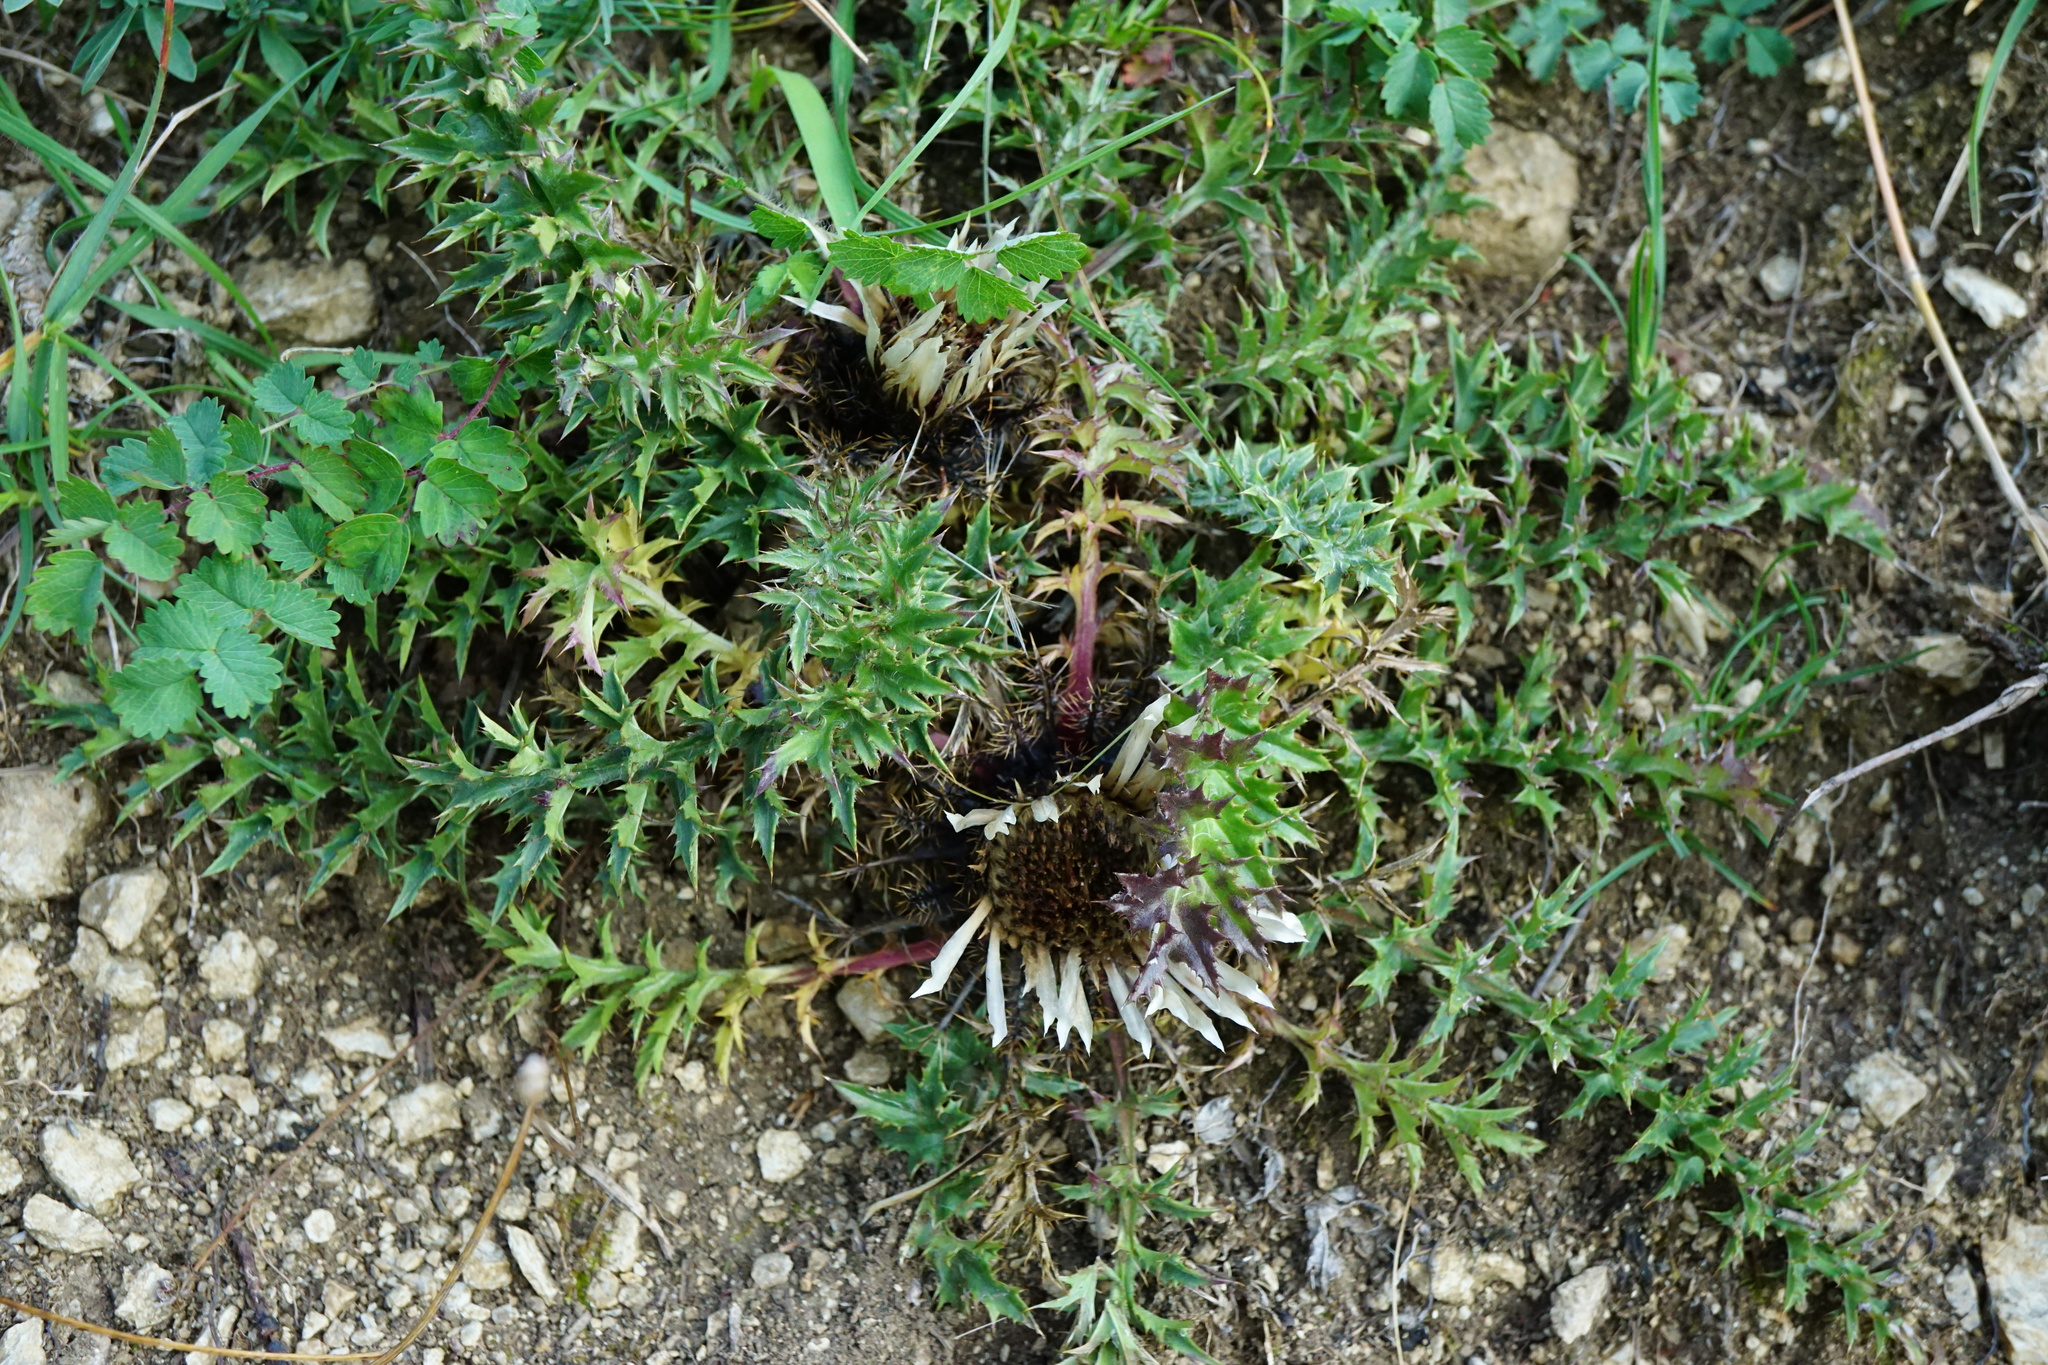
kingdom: Plantae
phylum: Tracheophyta
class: Magnoliopsida
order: Asterales
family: Asteraceae
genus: Carlina
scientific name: Carlina acaulis
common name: Stemless carline thistle
